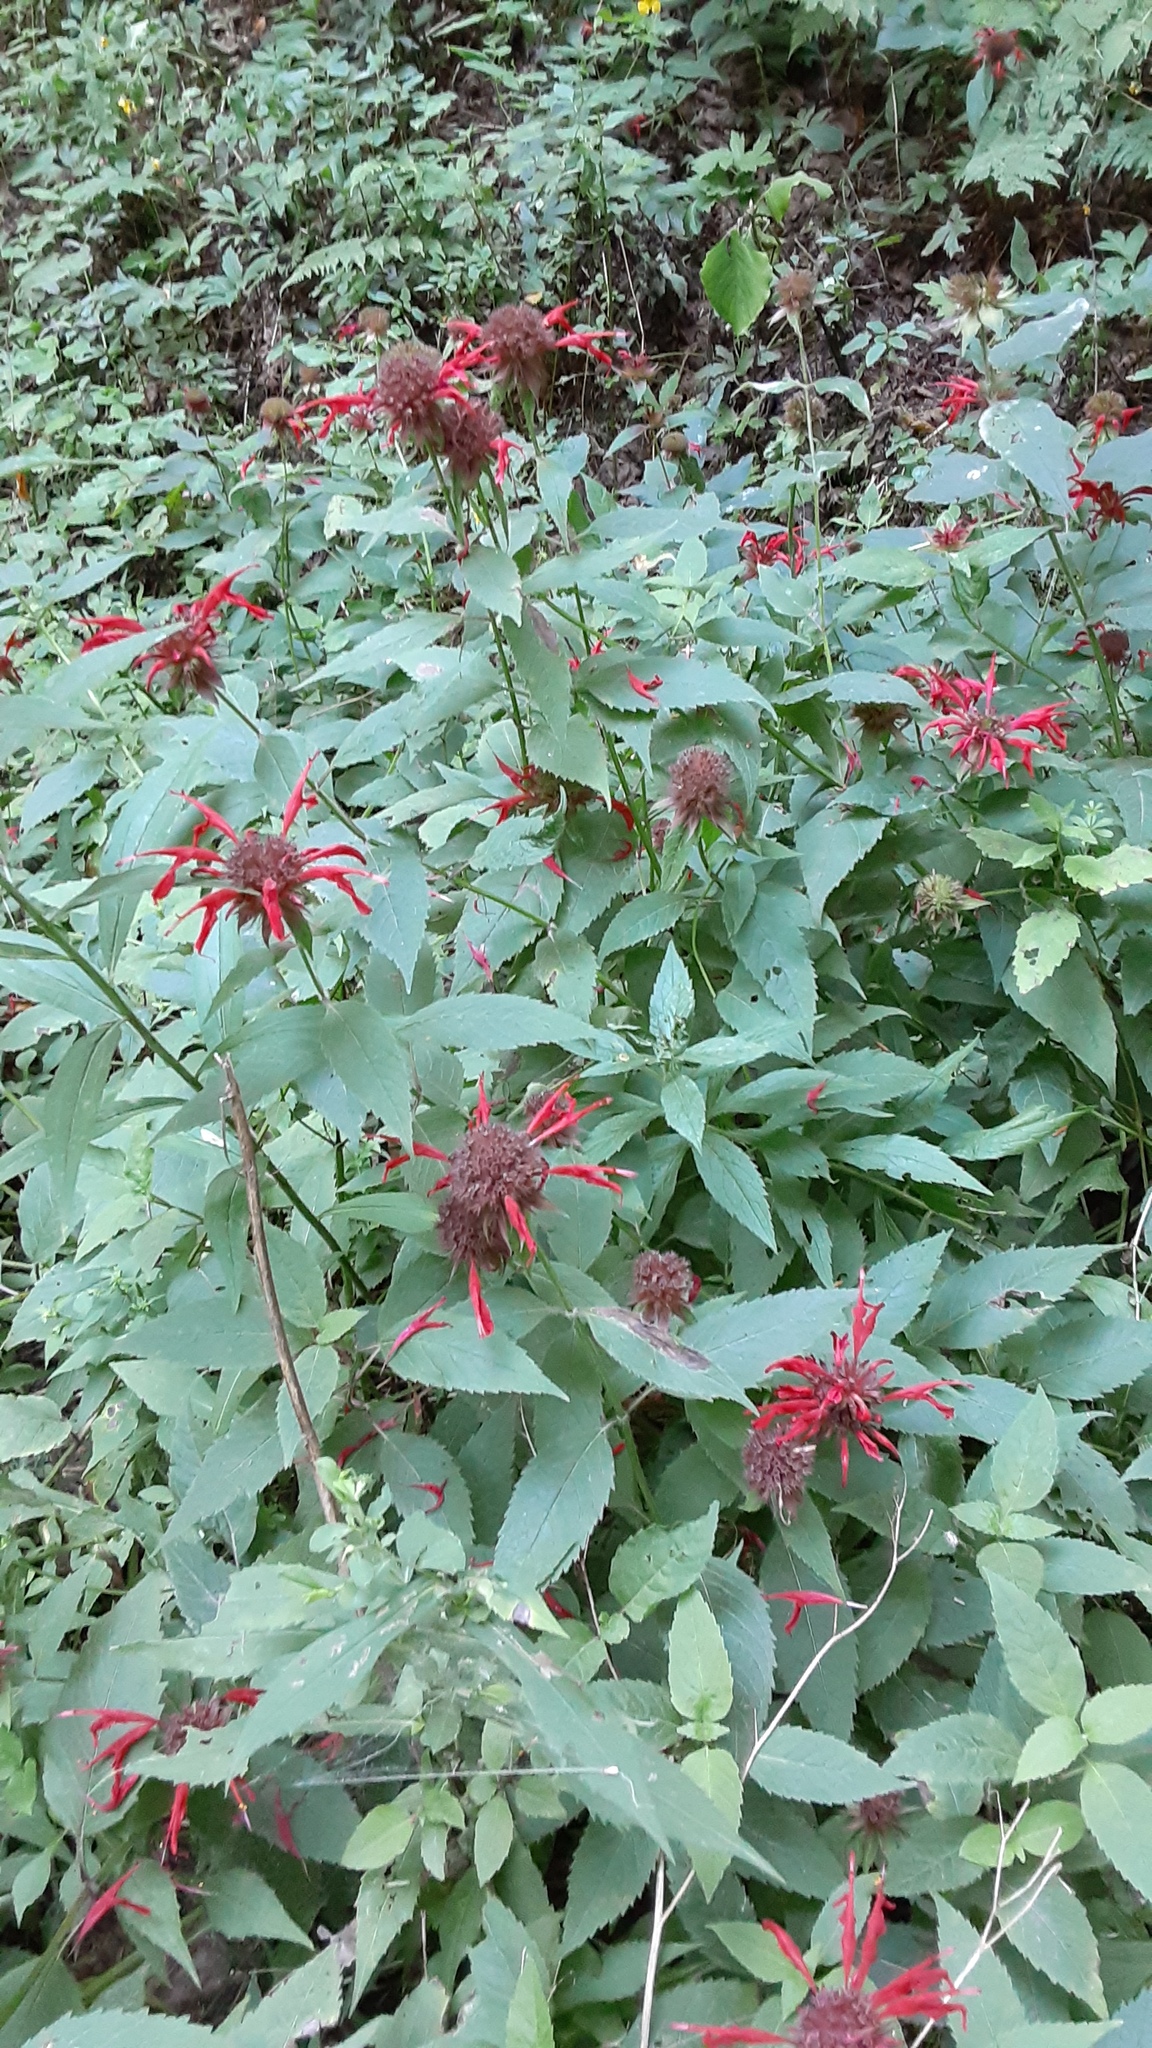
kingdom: Plantae
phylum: Tracheophyta
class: Magnoliopsida
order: Lamiales
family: Lamiaceae
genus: Monarda
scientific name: Monarda didyma
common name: Beebalm
